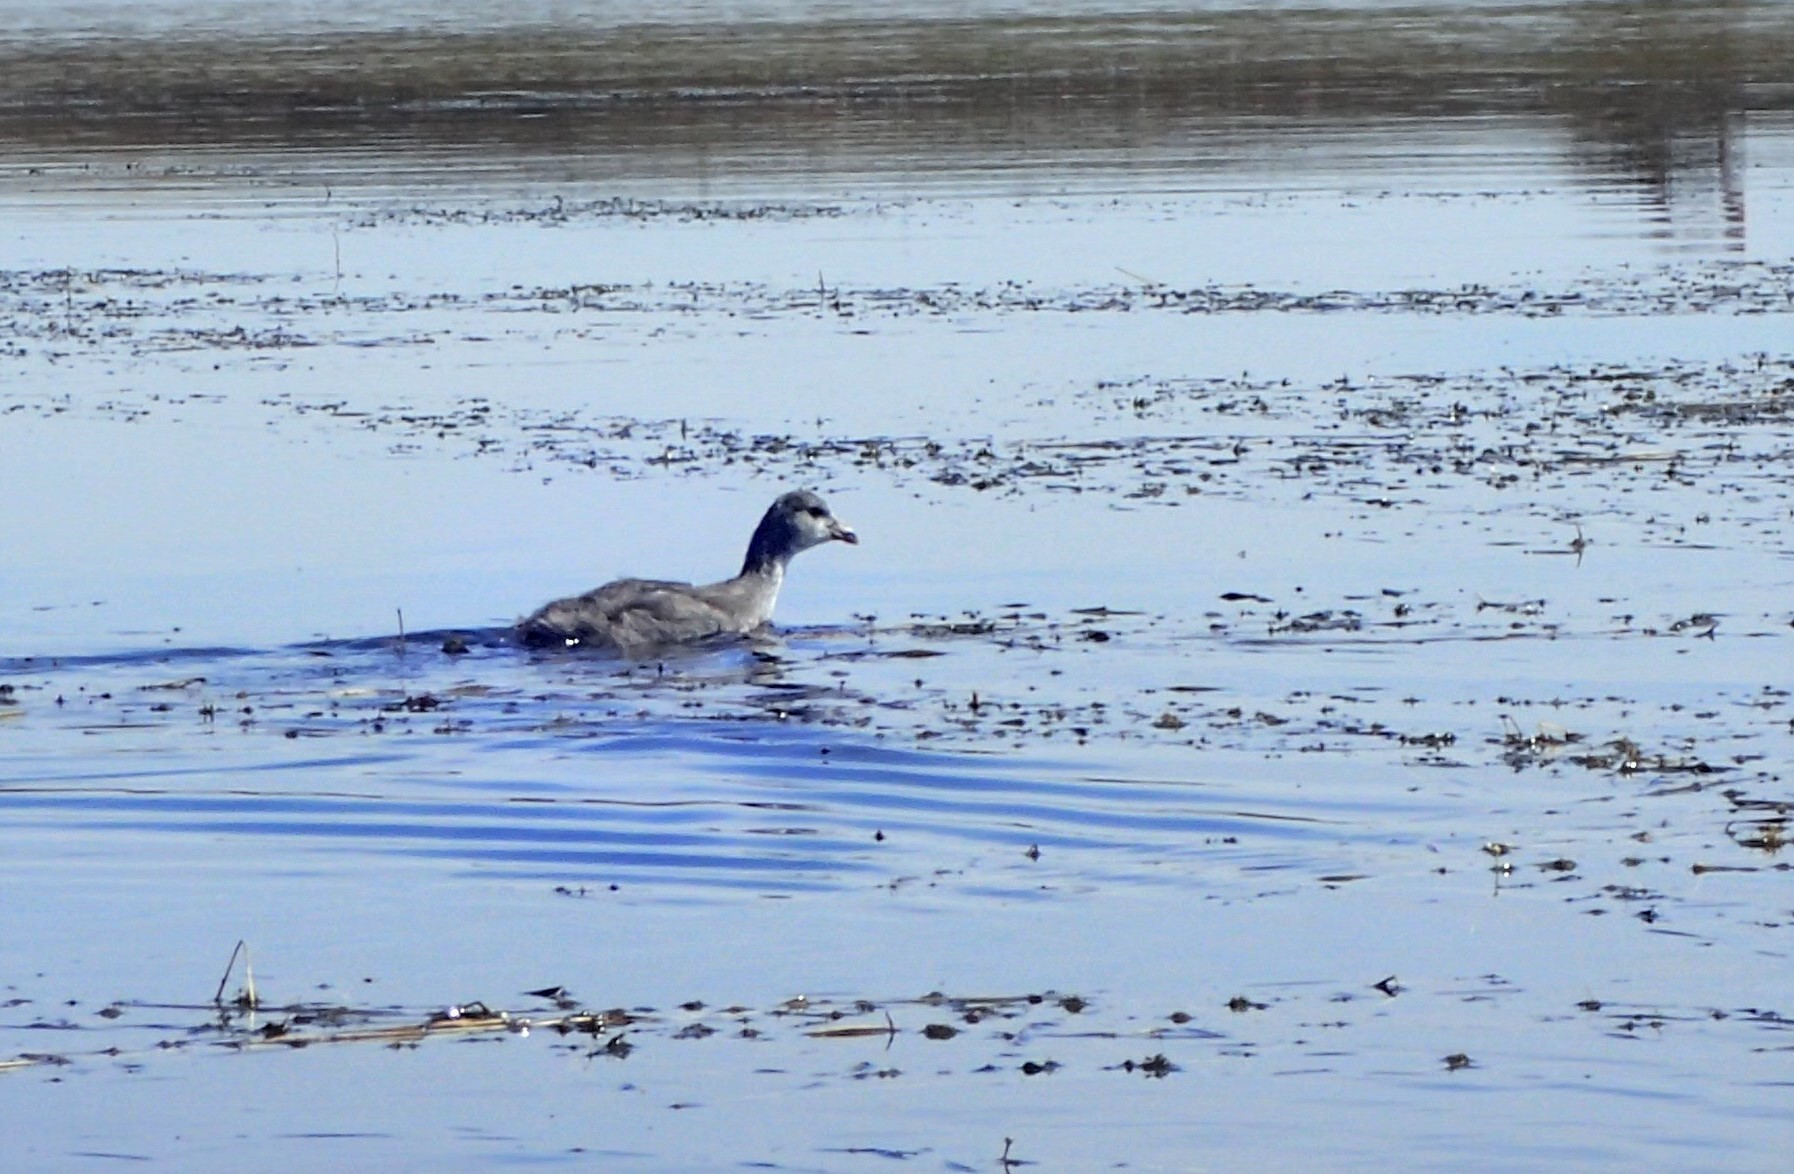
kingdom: Animalia
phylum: Chordata
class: Aves
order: Gruiformes
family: Rallidae
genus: Fulica
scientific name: Fulica americana
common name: American coot
